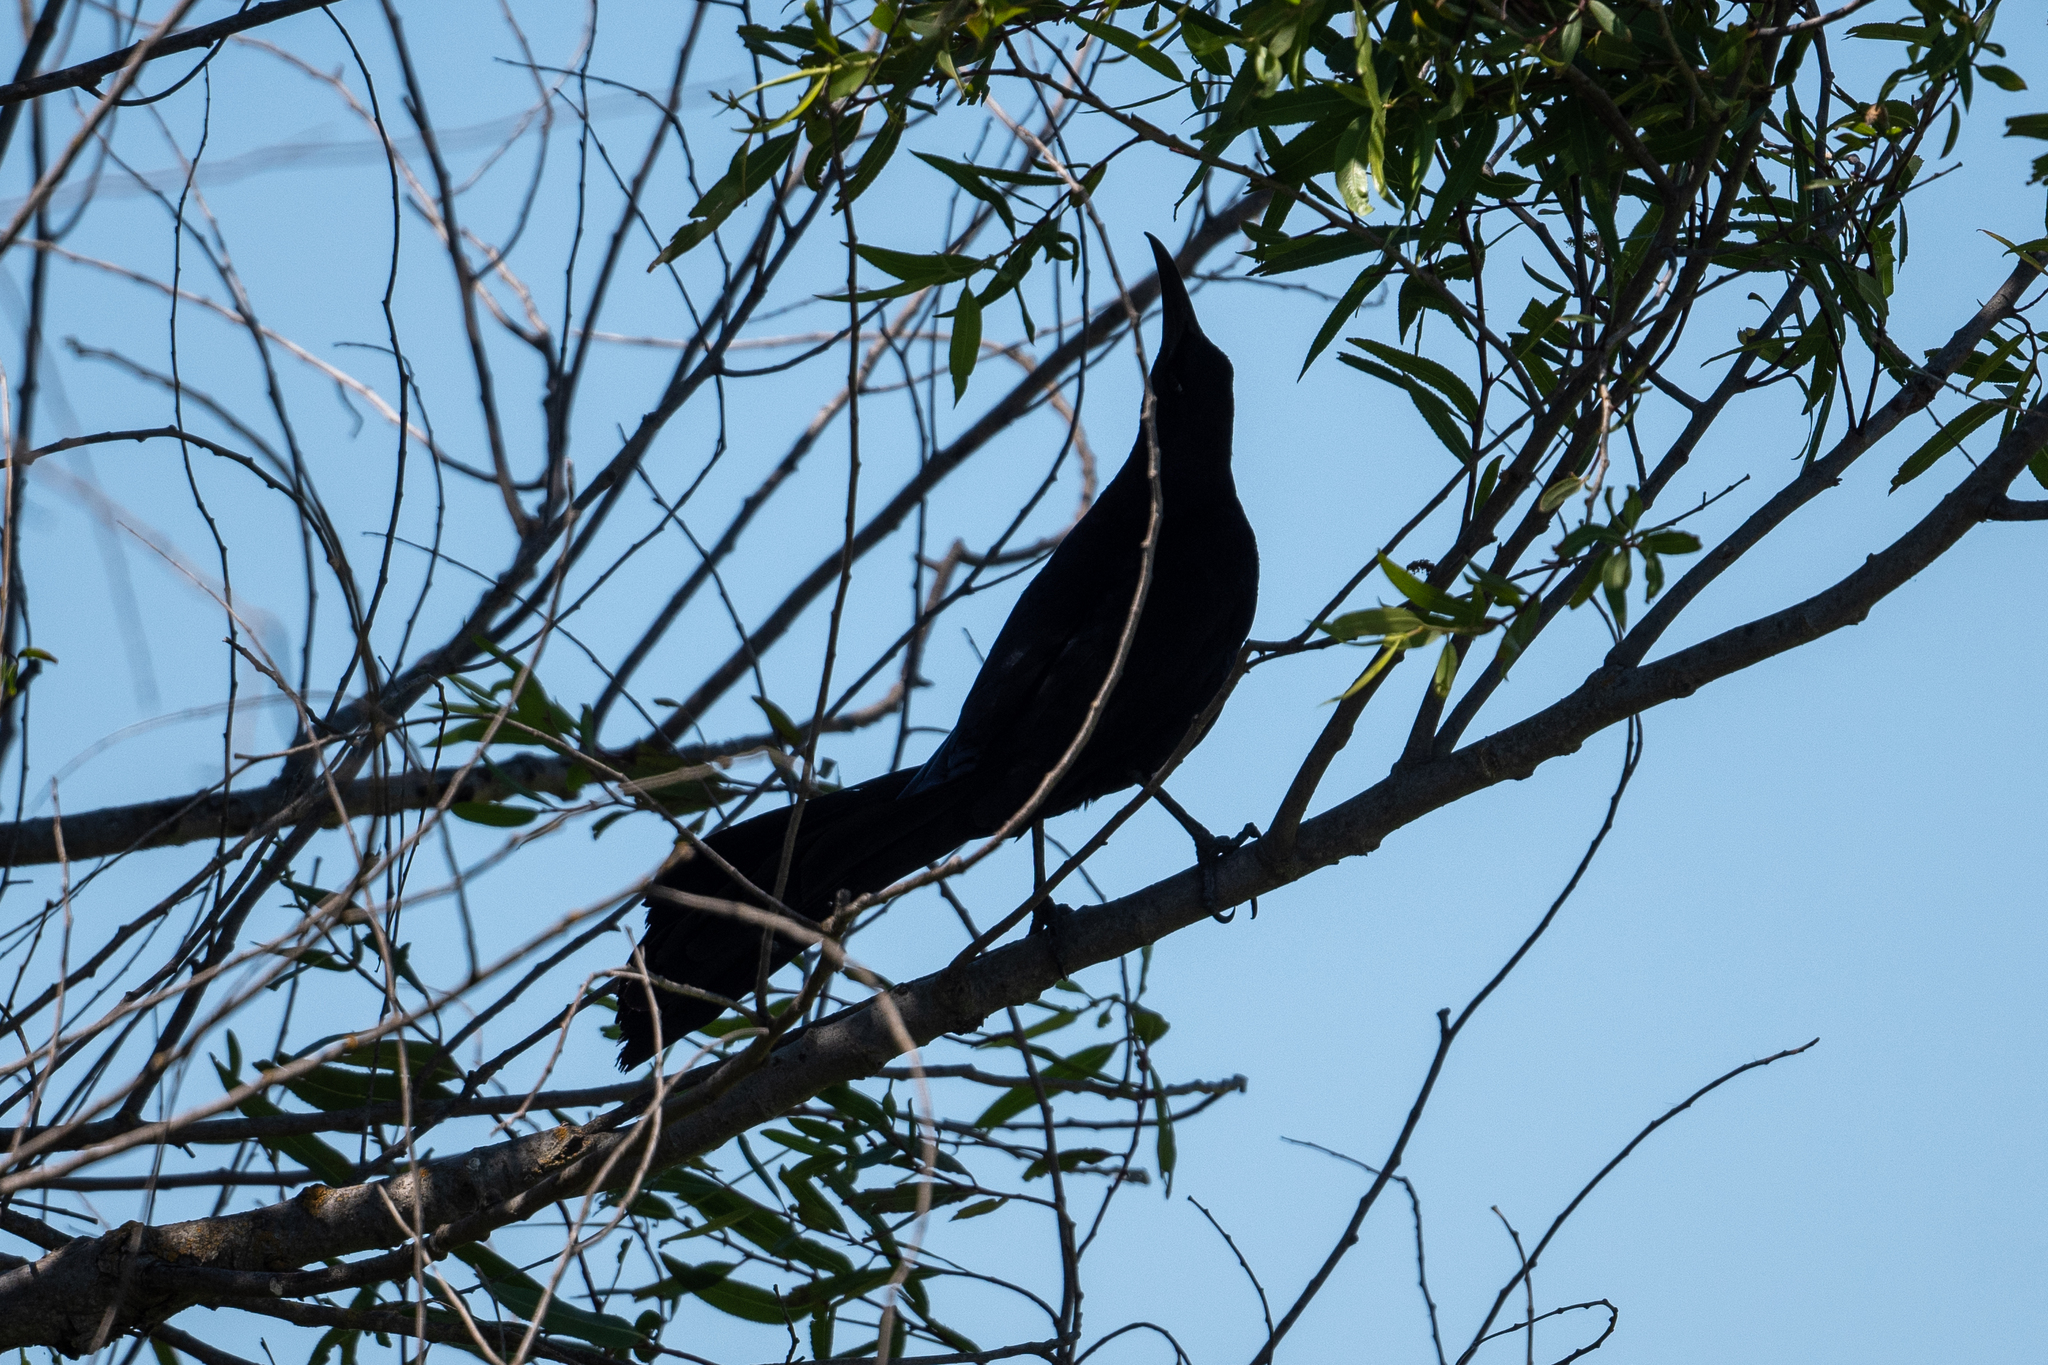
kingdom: Animalia
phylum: Chordata
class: Aves
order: Passeriformes
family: Icteridae
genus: Quiscalus
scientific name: Quiscalus mexicanus
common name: Great-tailed grackle
